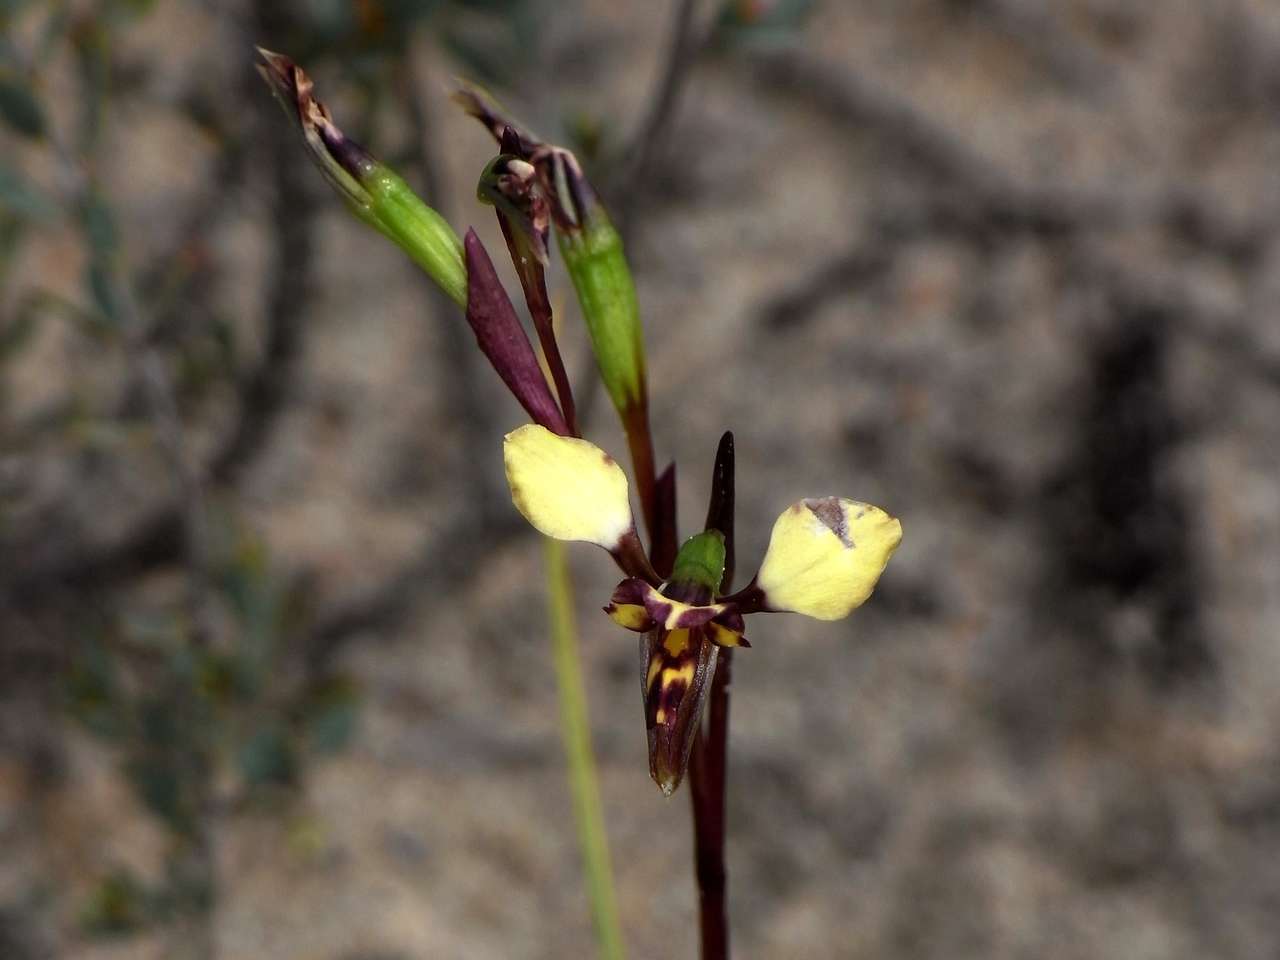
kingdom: Plantae
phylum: Tracheophyta
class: Liliopsida
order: Asparagales
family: Orchidaceae
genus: Diuris
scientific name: Diuris pardina
